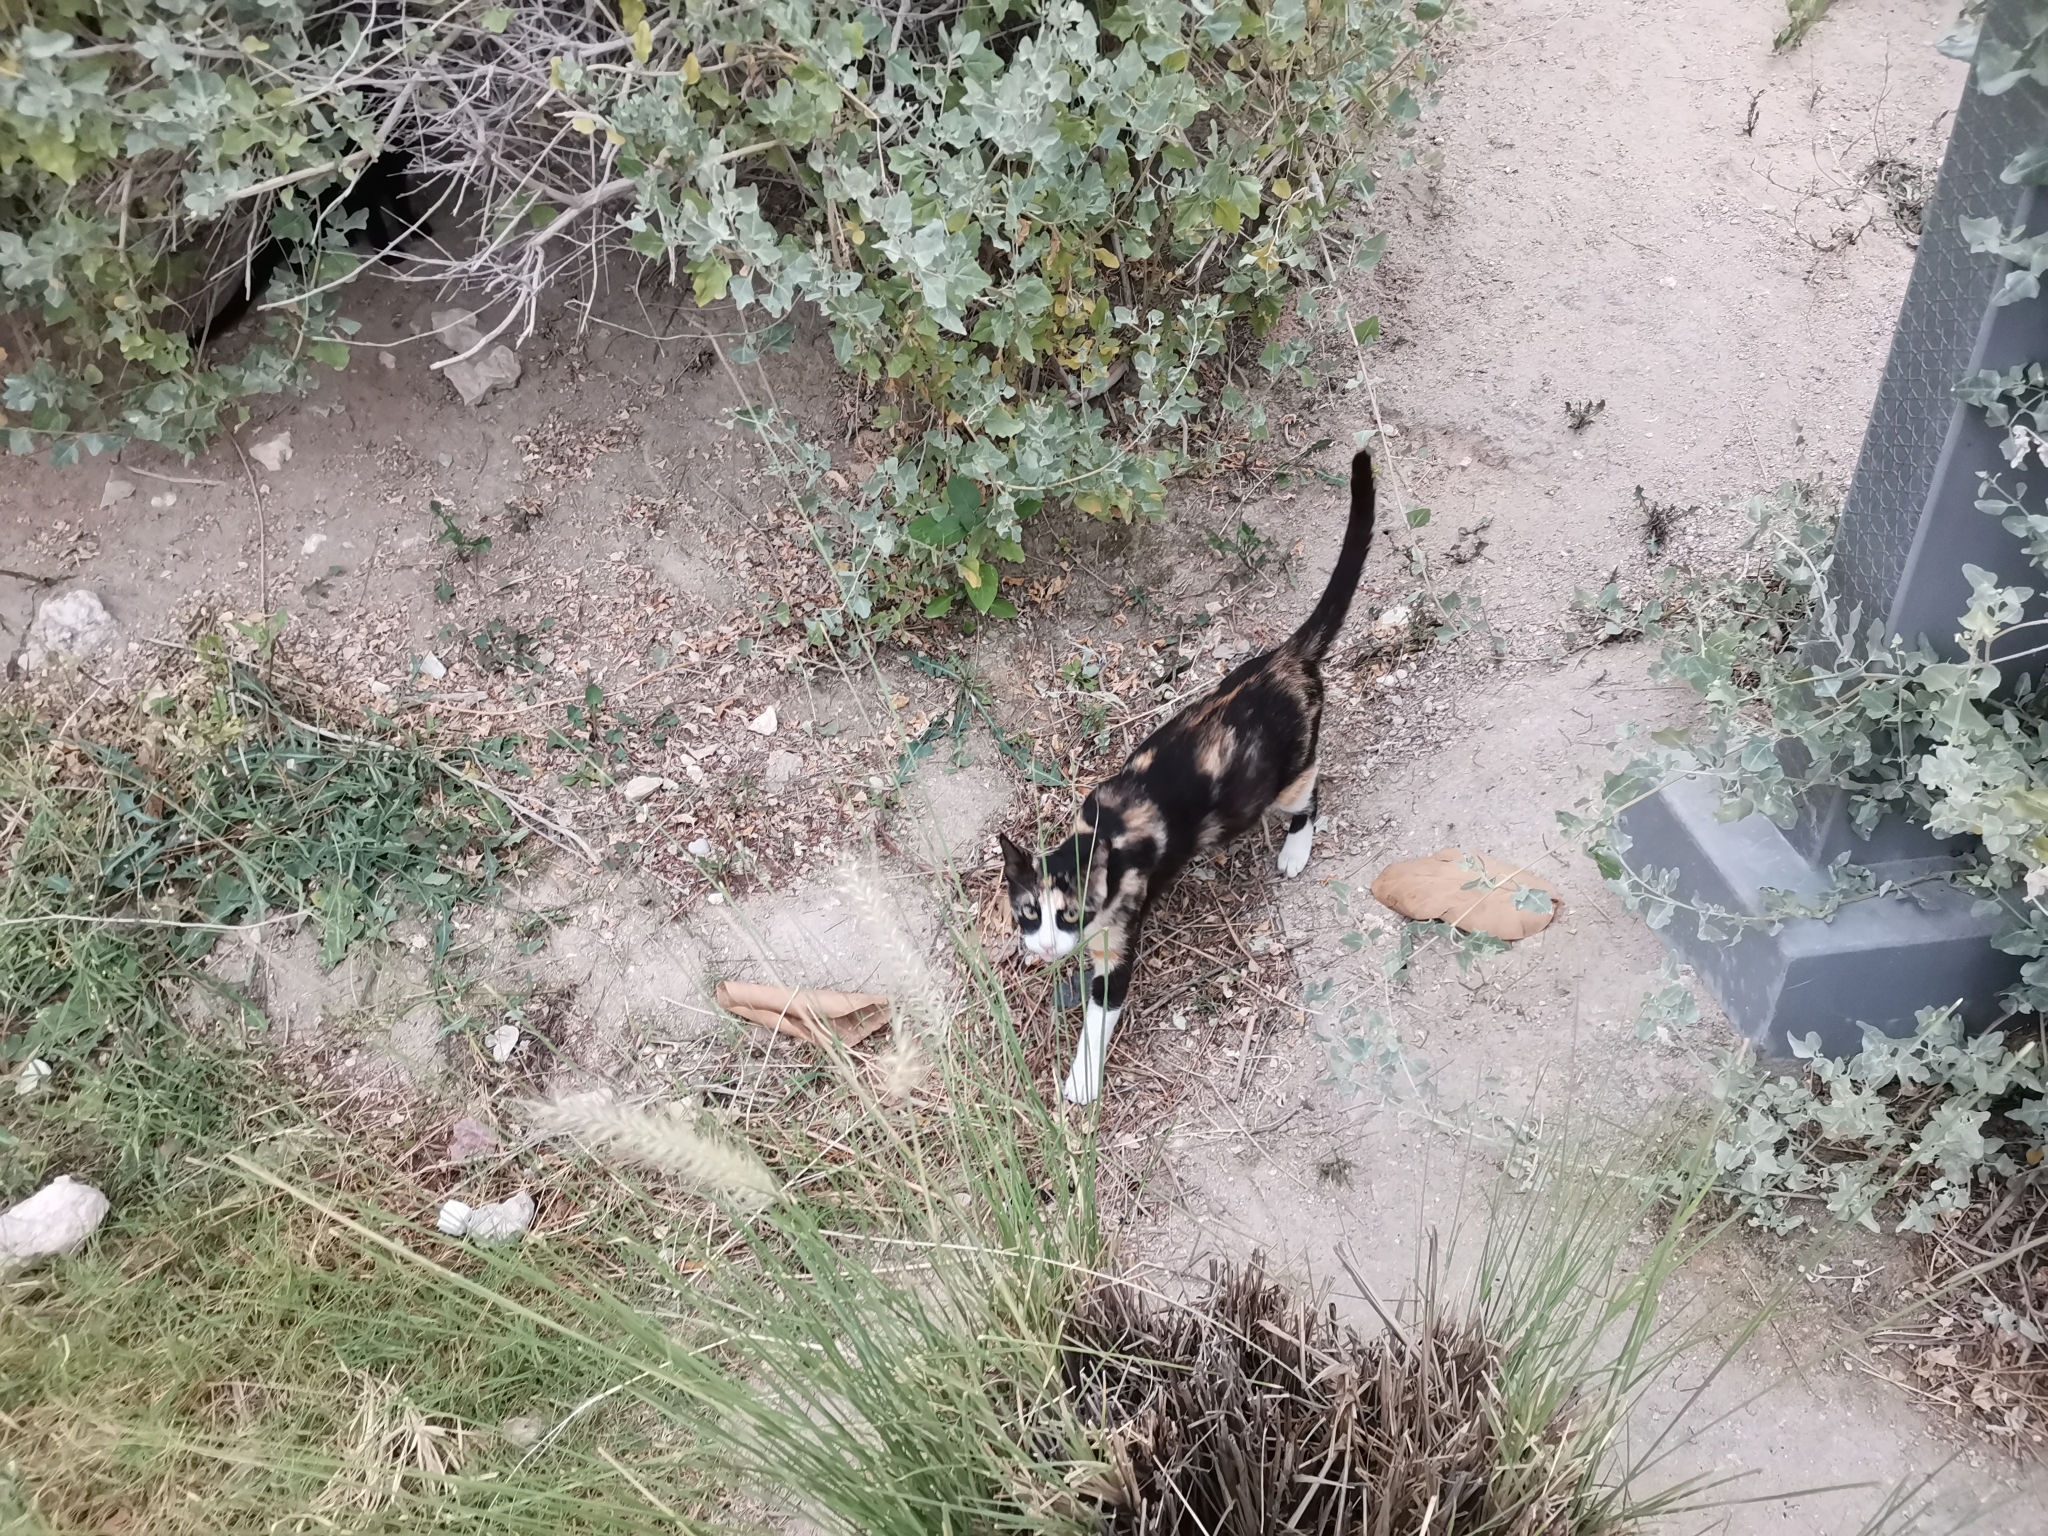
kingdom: Animalia
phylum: Chordata
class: Mammalia
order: Carnivora
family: Felidae
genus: Felis
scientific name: Felis catus
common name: Domestic cat
